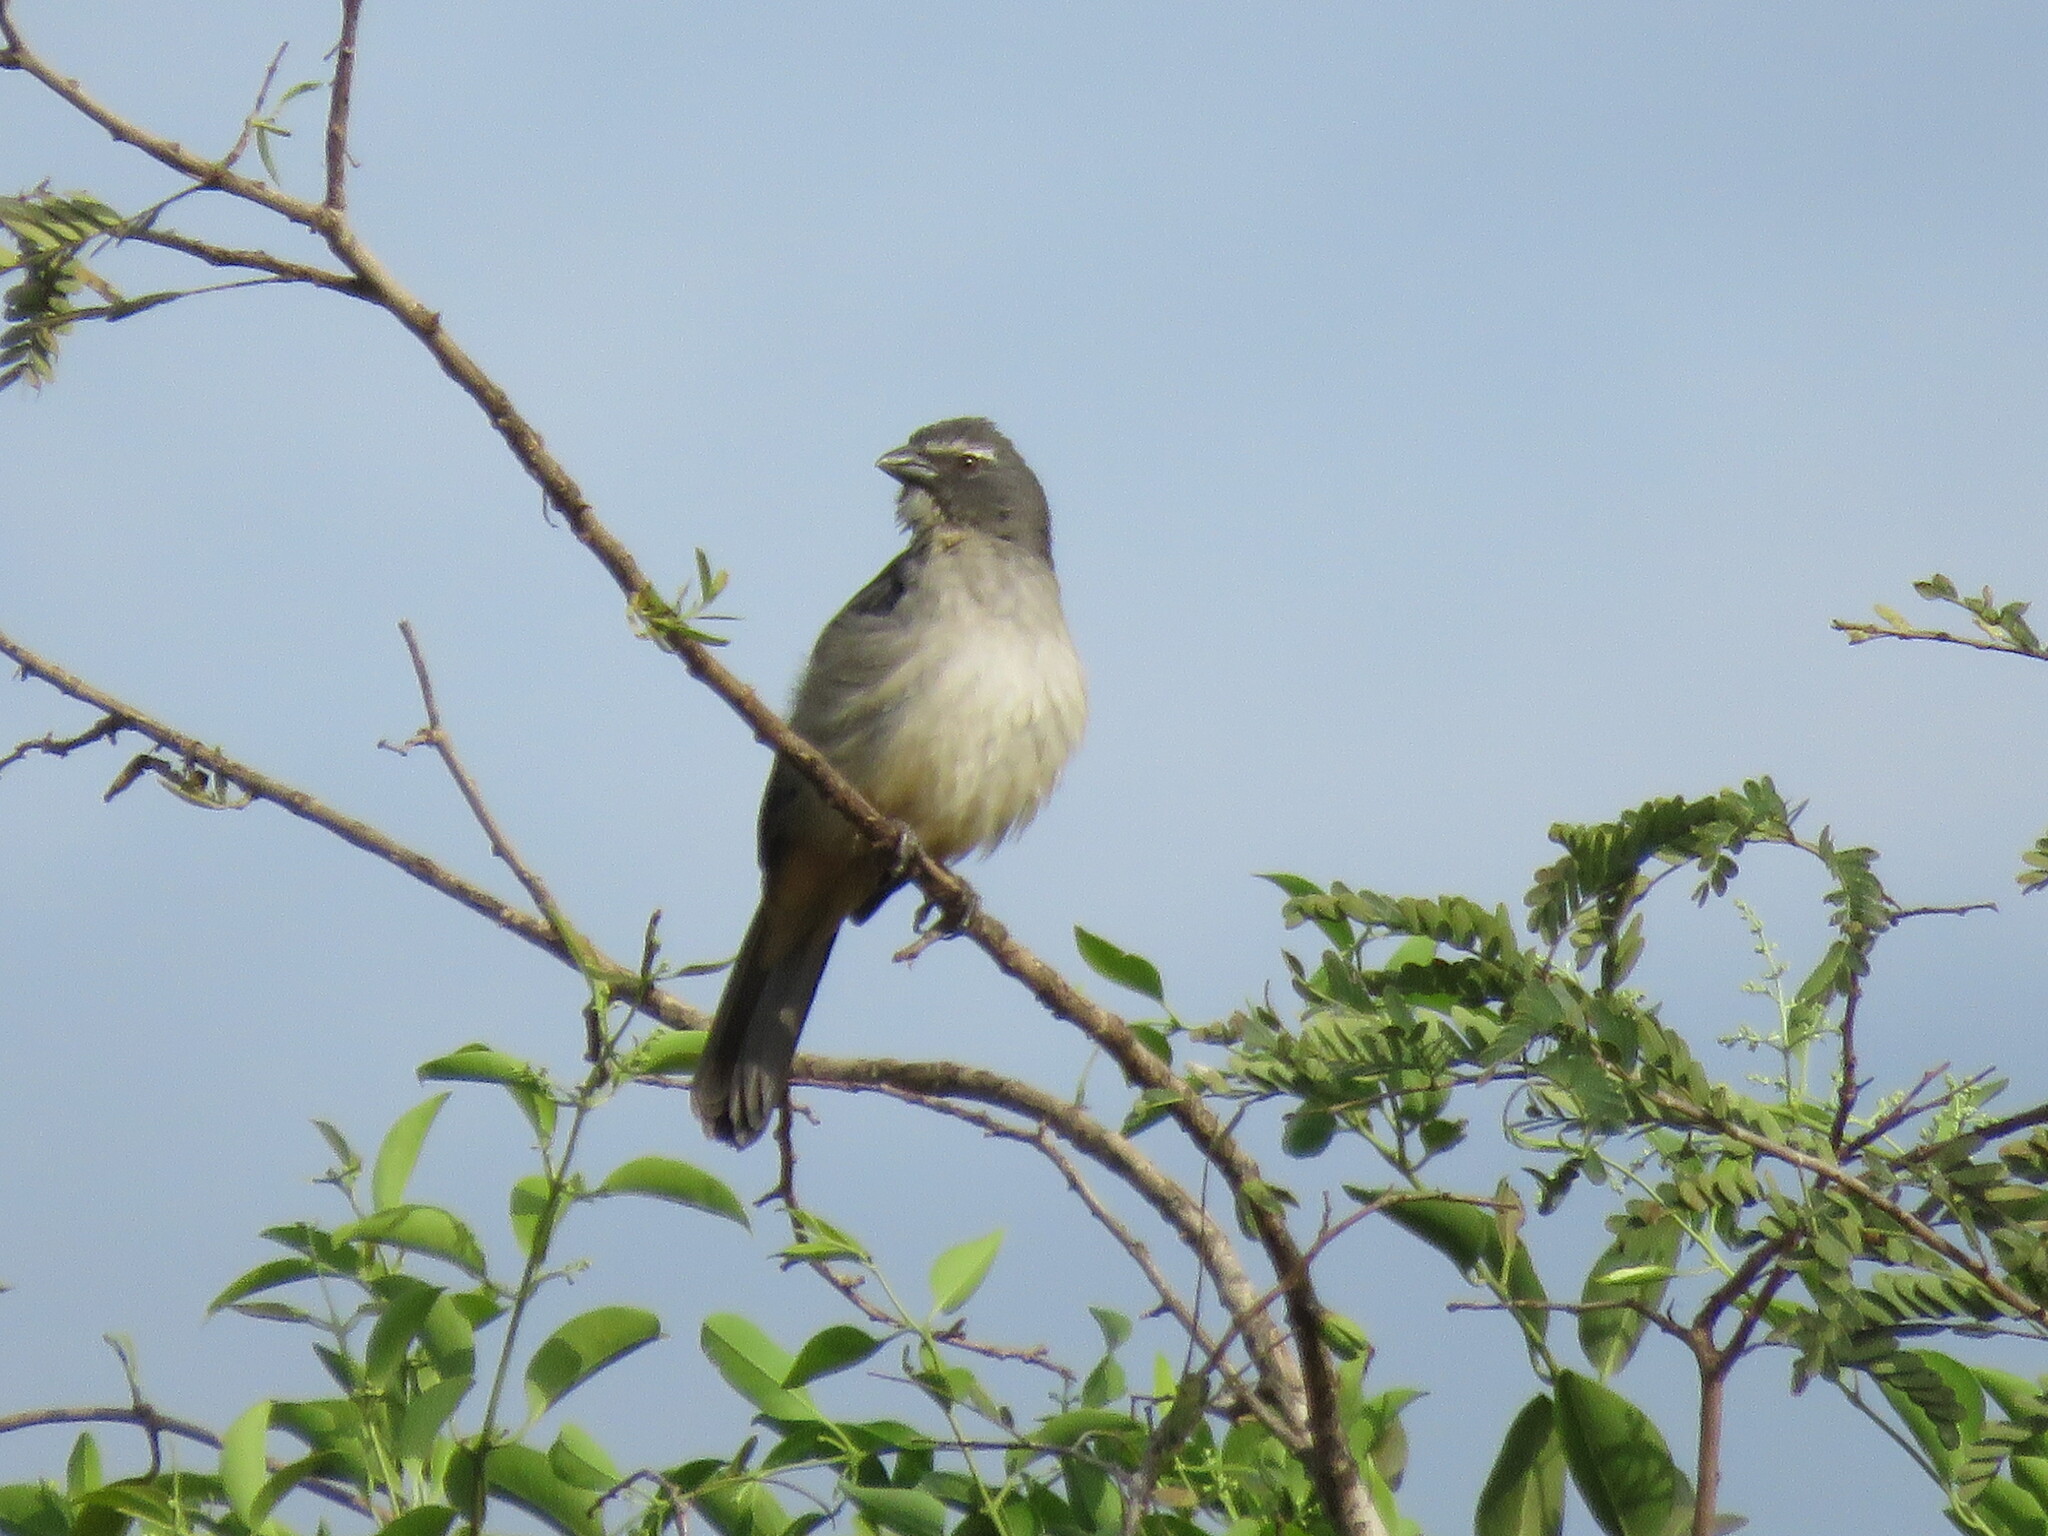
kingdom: Animalia
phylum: Chordata
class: Aves
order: Passeriformes
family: Thraupidae
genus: Saltator
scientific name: Saltator coerulescens
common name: Grayish saltator
